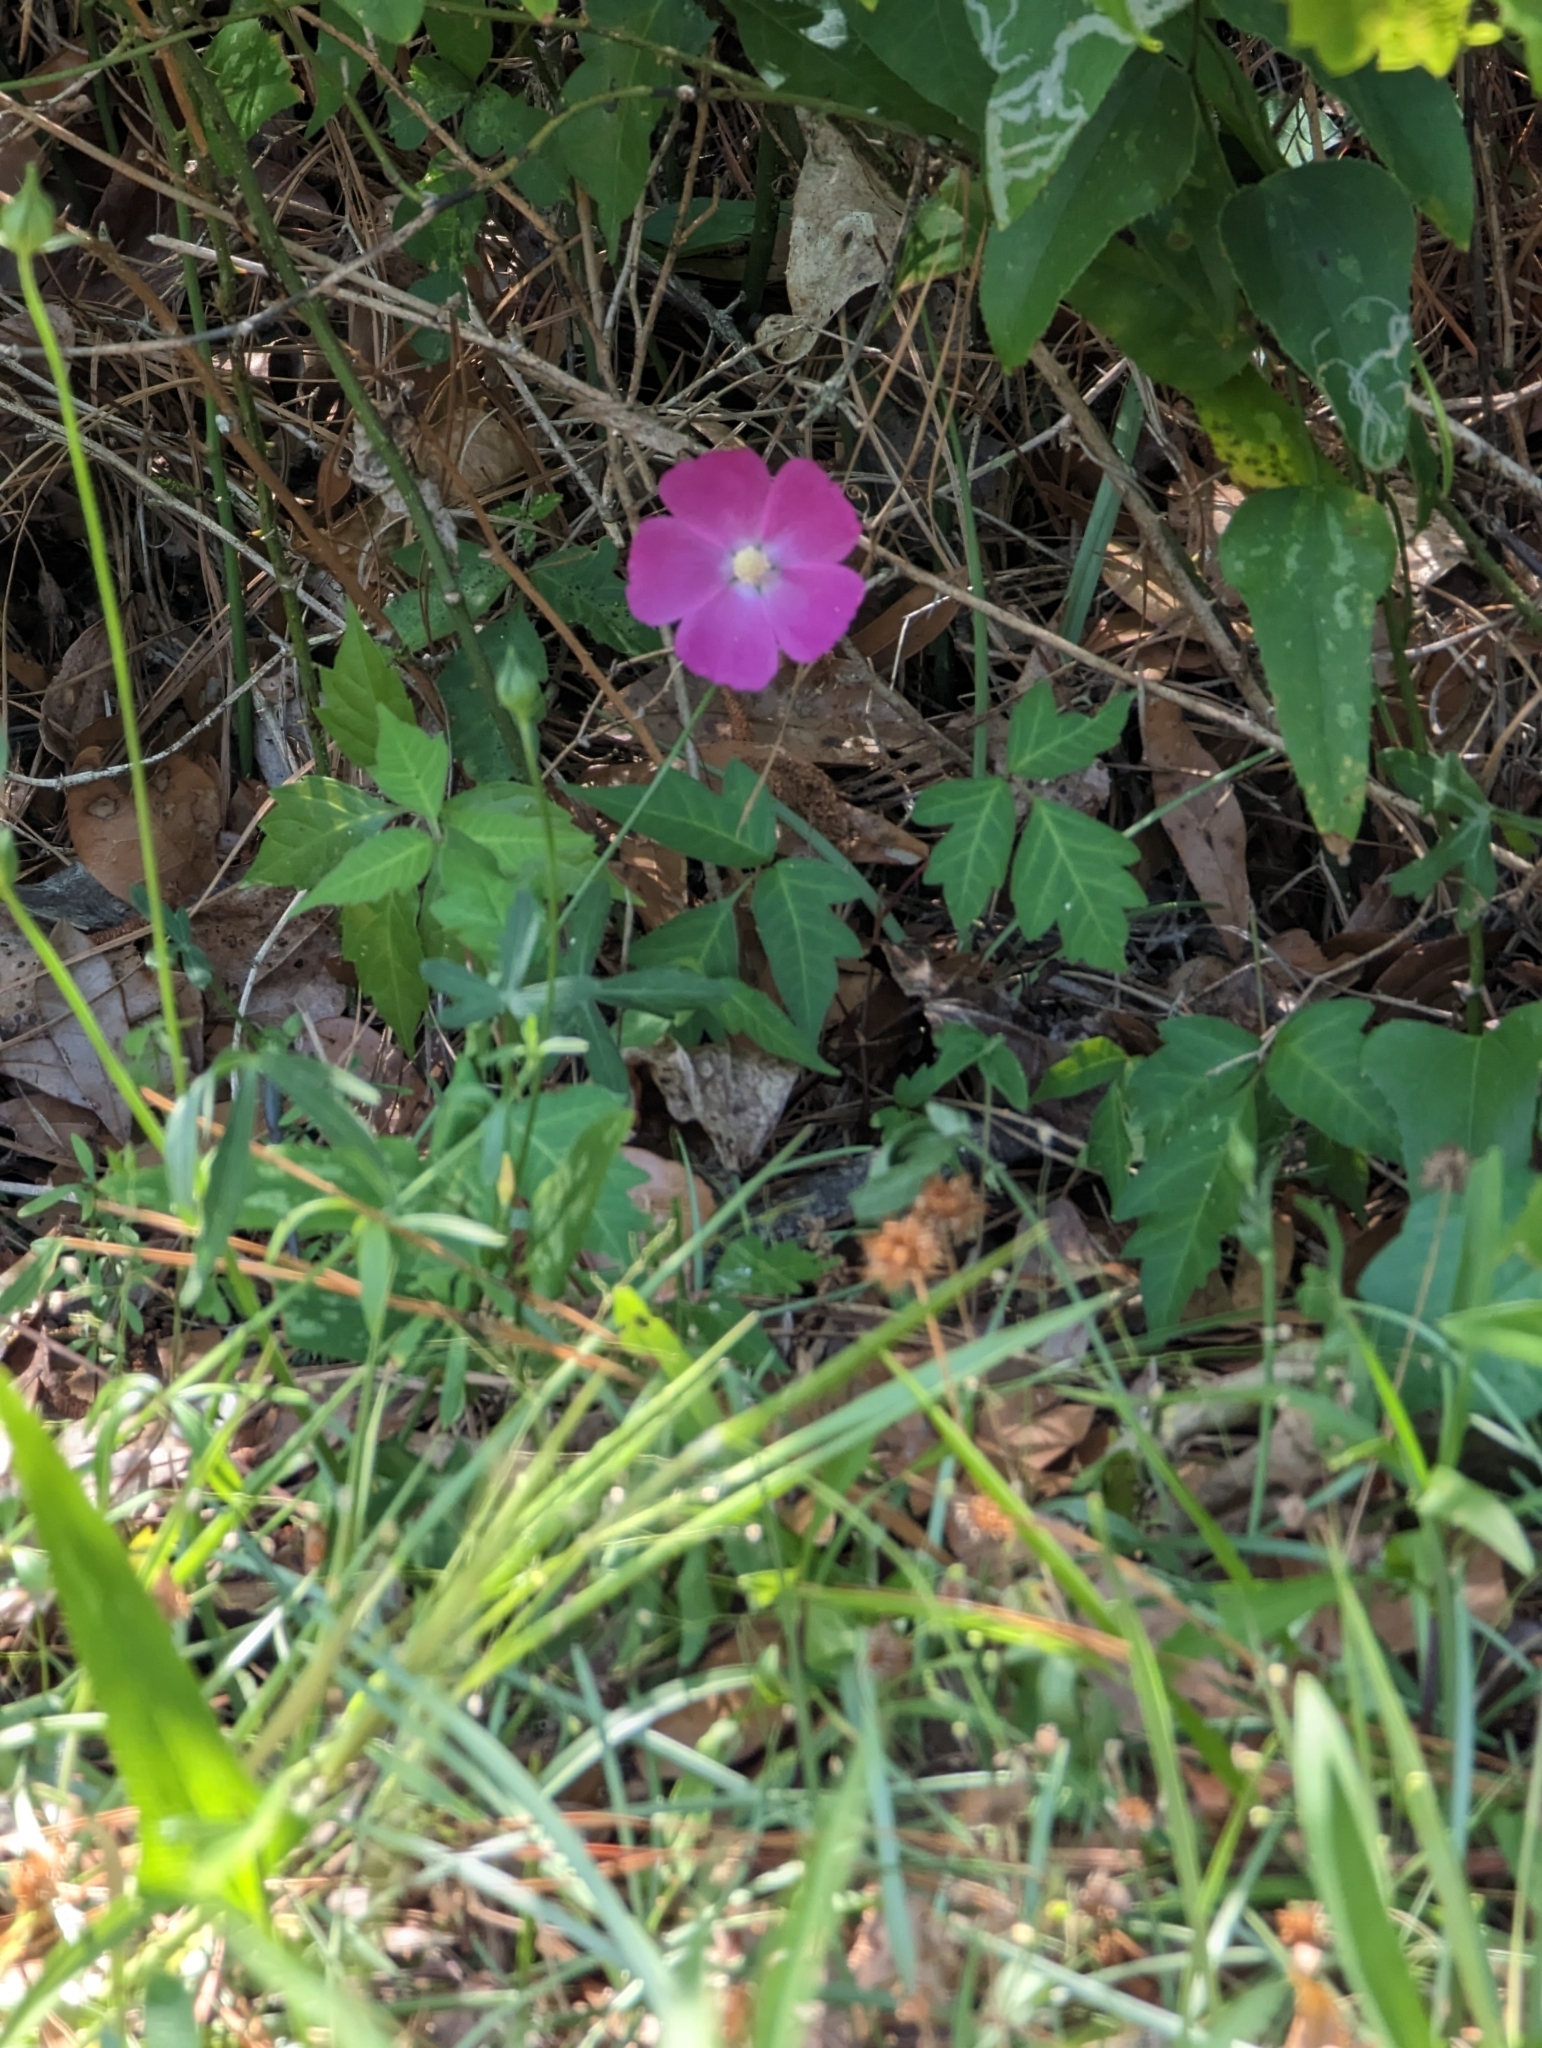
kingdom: Plantae
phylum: Tracheophyta
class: Magnoliopsida
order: Malvales
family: Malvaceae
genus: Callirhoe
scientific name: Callirhoe papaver
